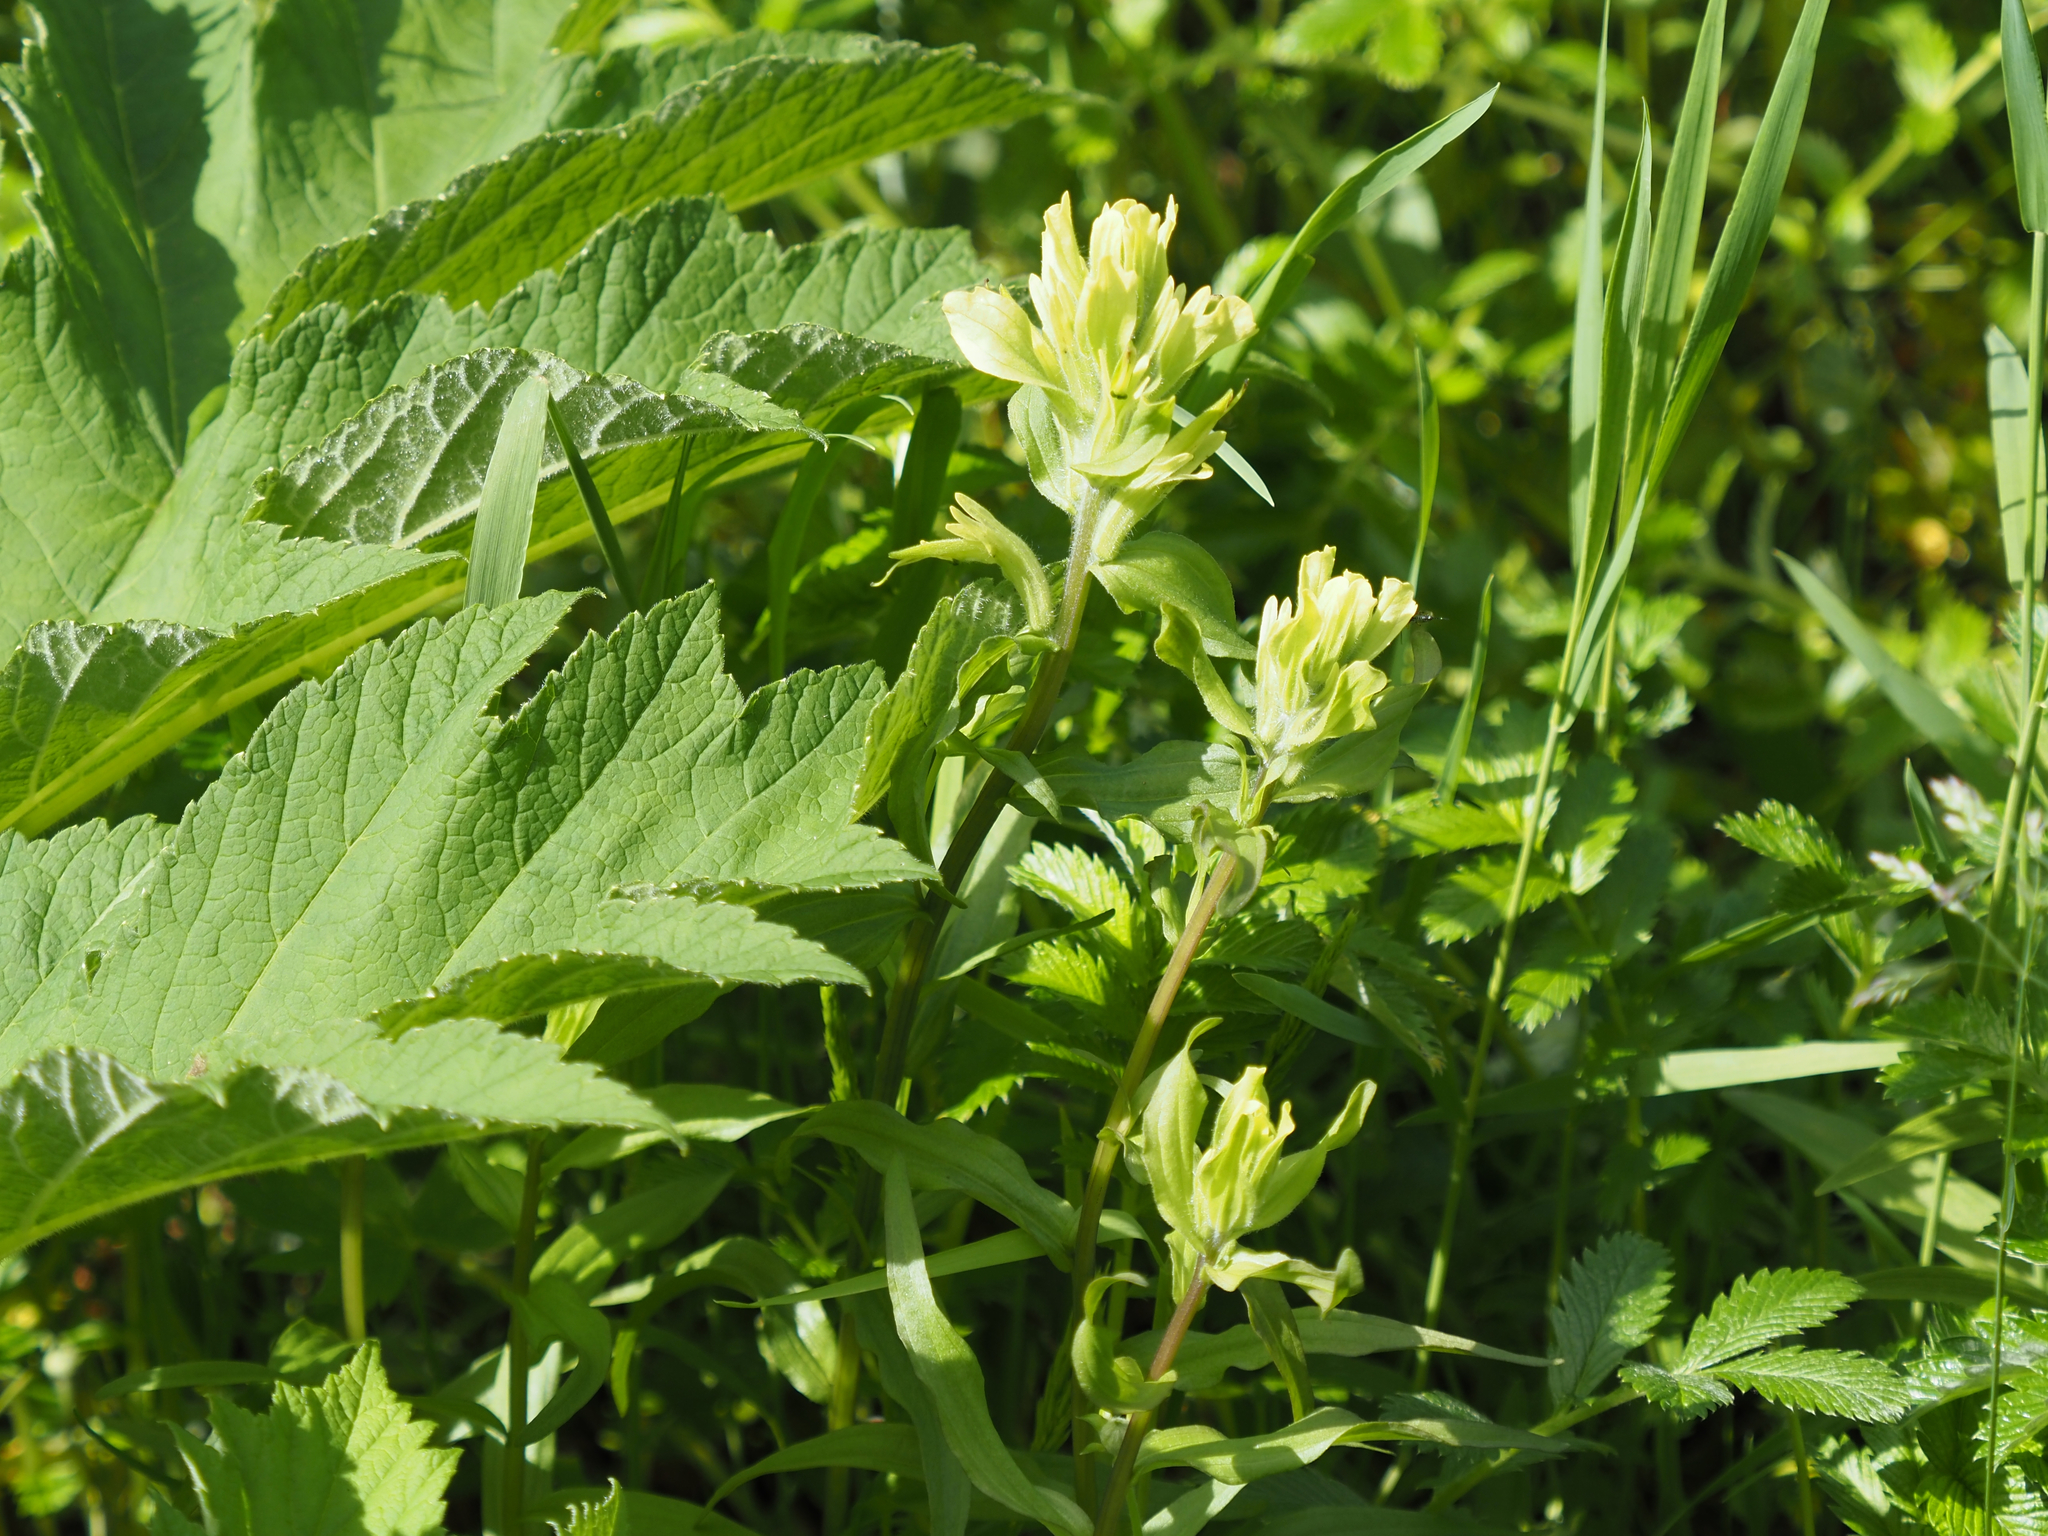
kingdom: Plantae
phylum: Tracheophyta
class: Magnoliopsida
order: Lamiales
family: Orobanchaceae
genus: Castilleja
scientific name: Castilleja unalaschcensis
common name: Unalaska paintbrush
